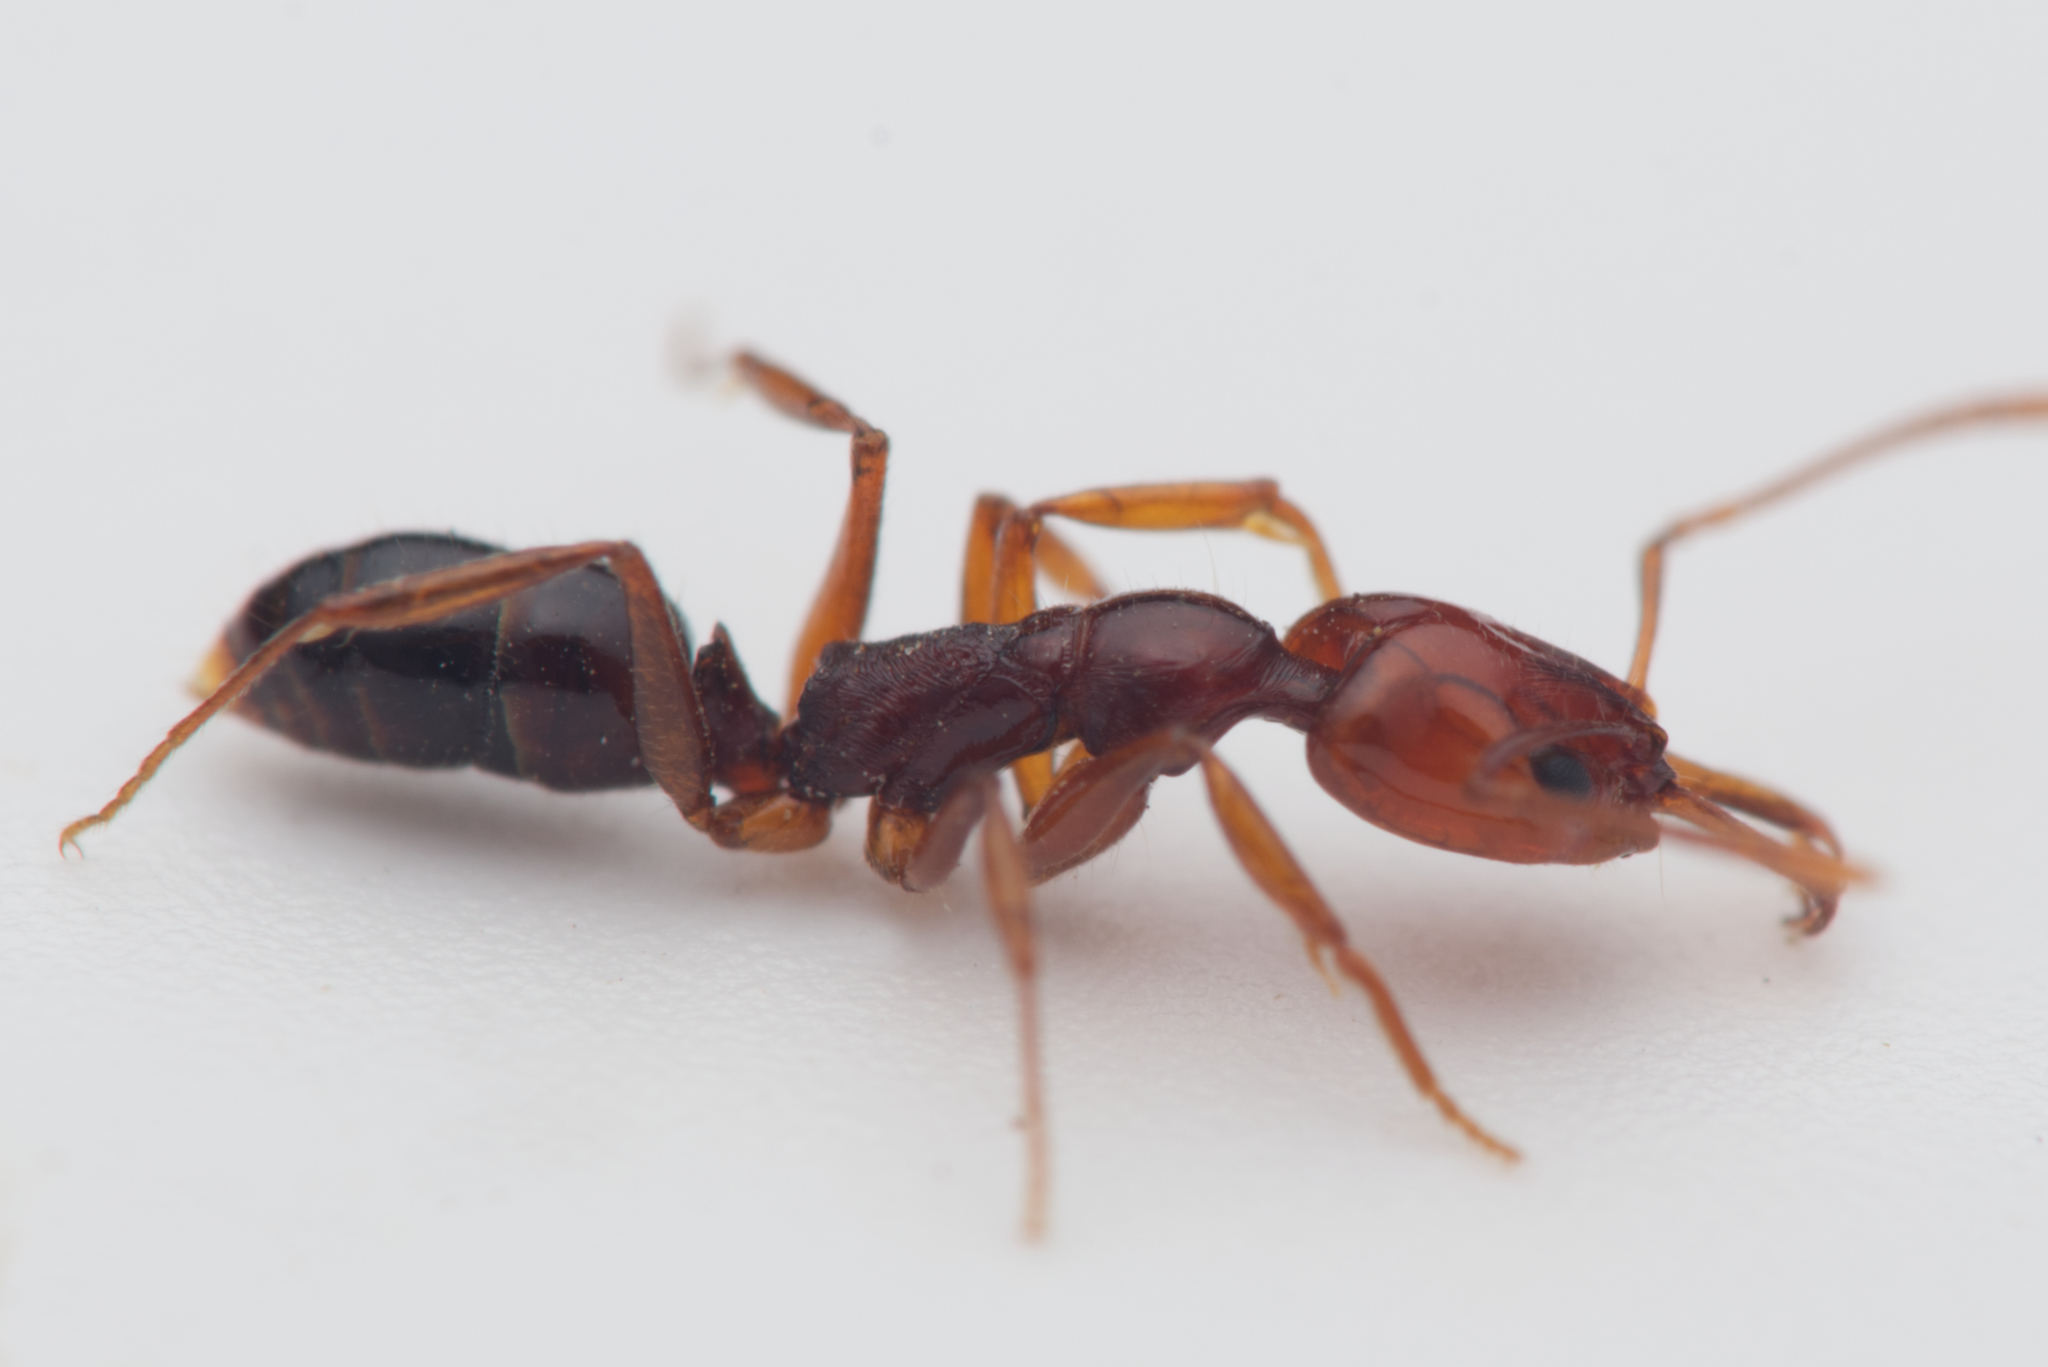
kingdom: Animalia
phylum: Arthropoda
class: Insecta
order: Hymenoptera
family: Formicidae
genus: Anochetus
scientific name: Anochetus rectangularis
